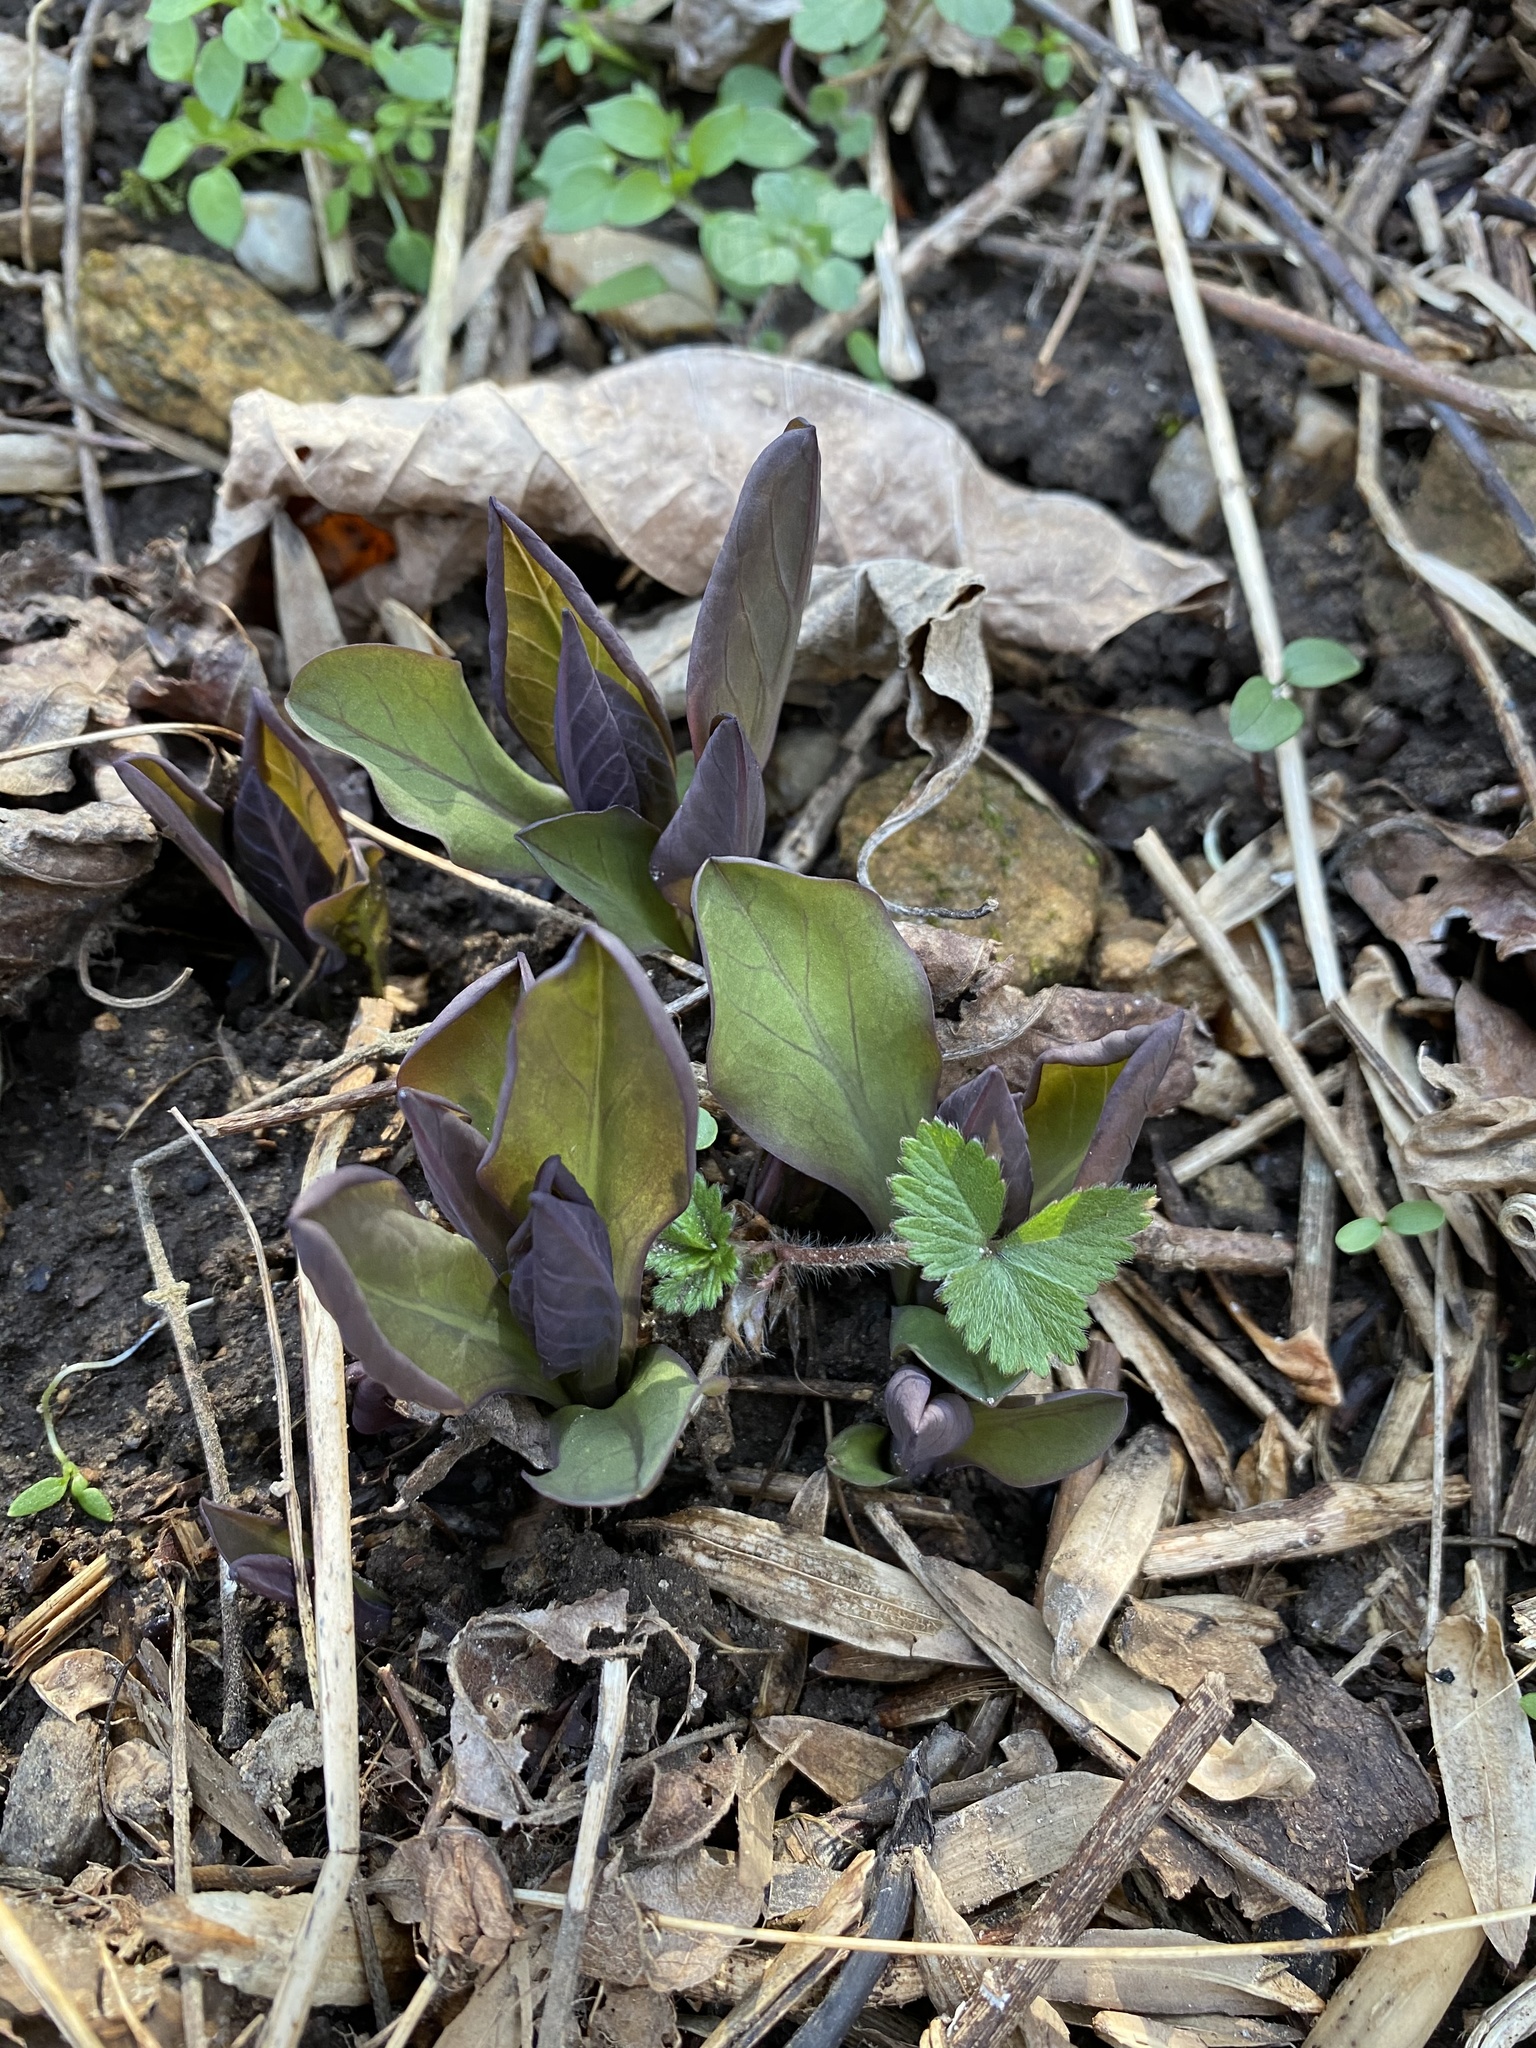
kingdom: Plantae
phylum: Tracheophyta
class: Magnoliopsida
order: Boraginales
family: Boraginaceae
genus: Mertensia
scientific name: Mertensia virginica
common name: Virginia bluebells
